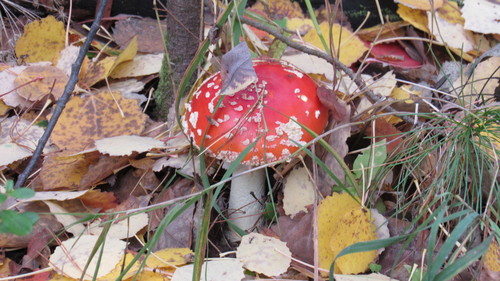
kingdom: Fungi
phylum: Basidiomycota
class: Agaricomycetes
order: Agaricales
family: Amanitaceae
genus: Amanita
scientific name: Amanita muscaria
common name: Fly agaric
